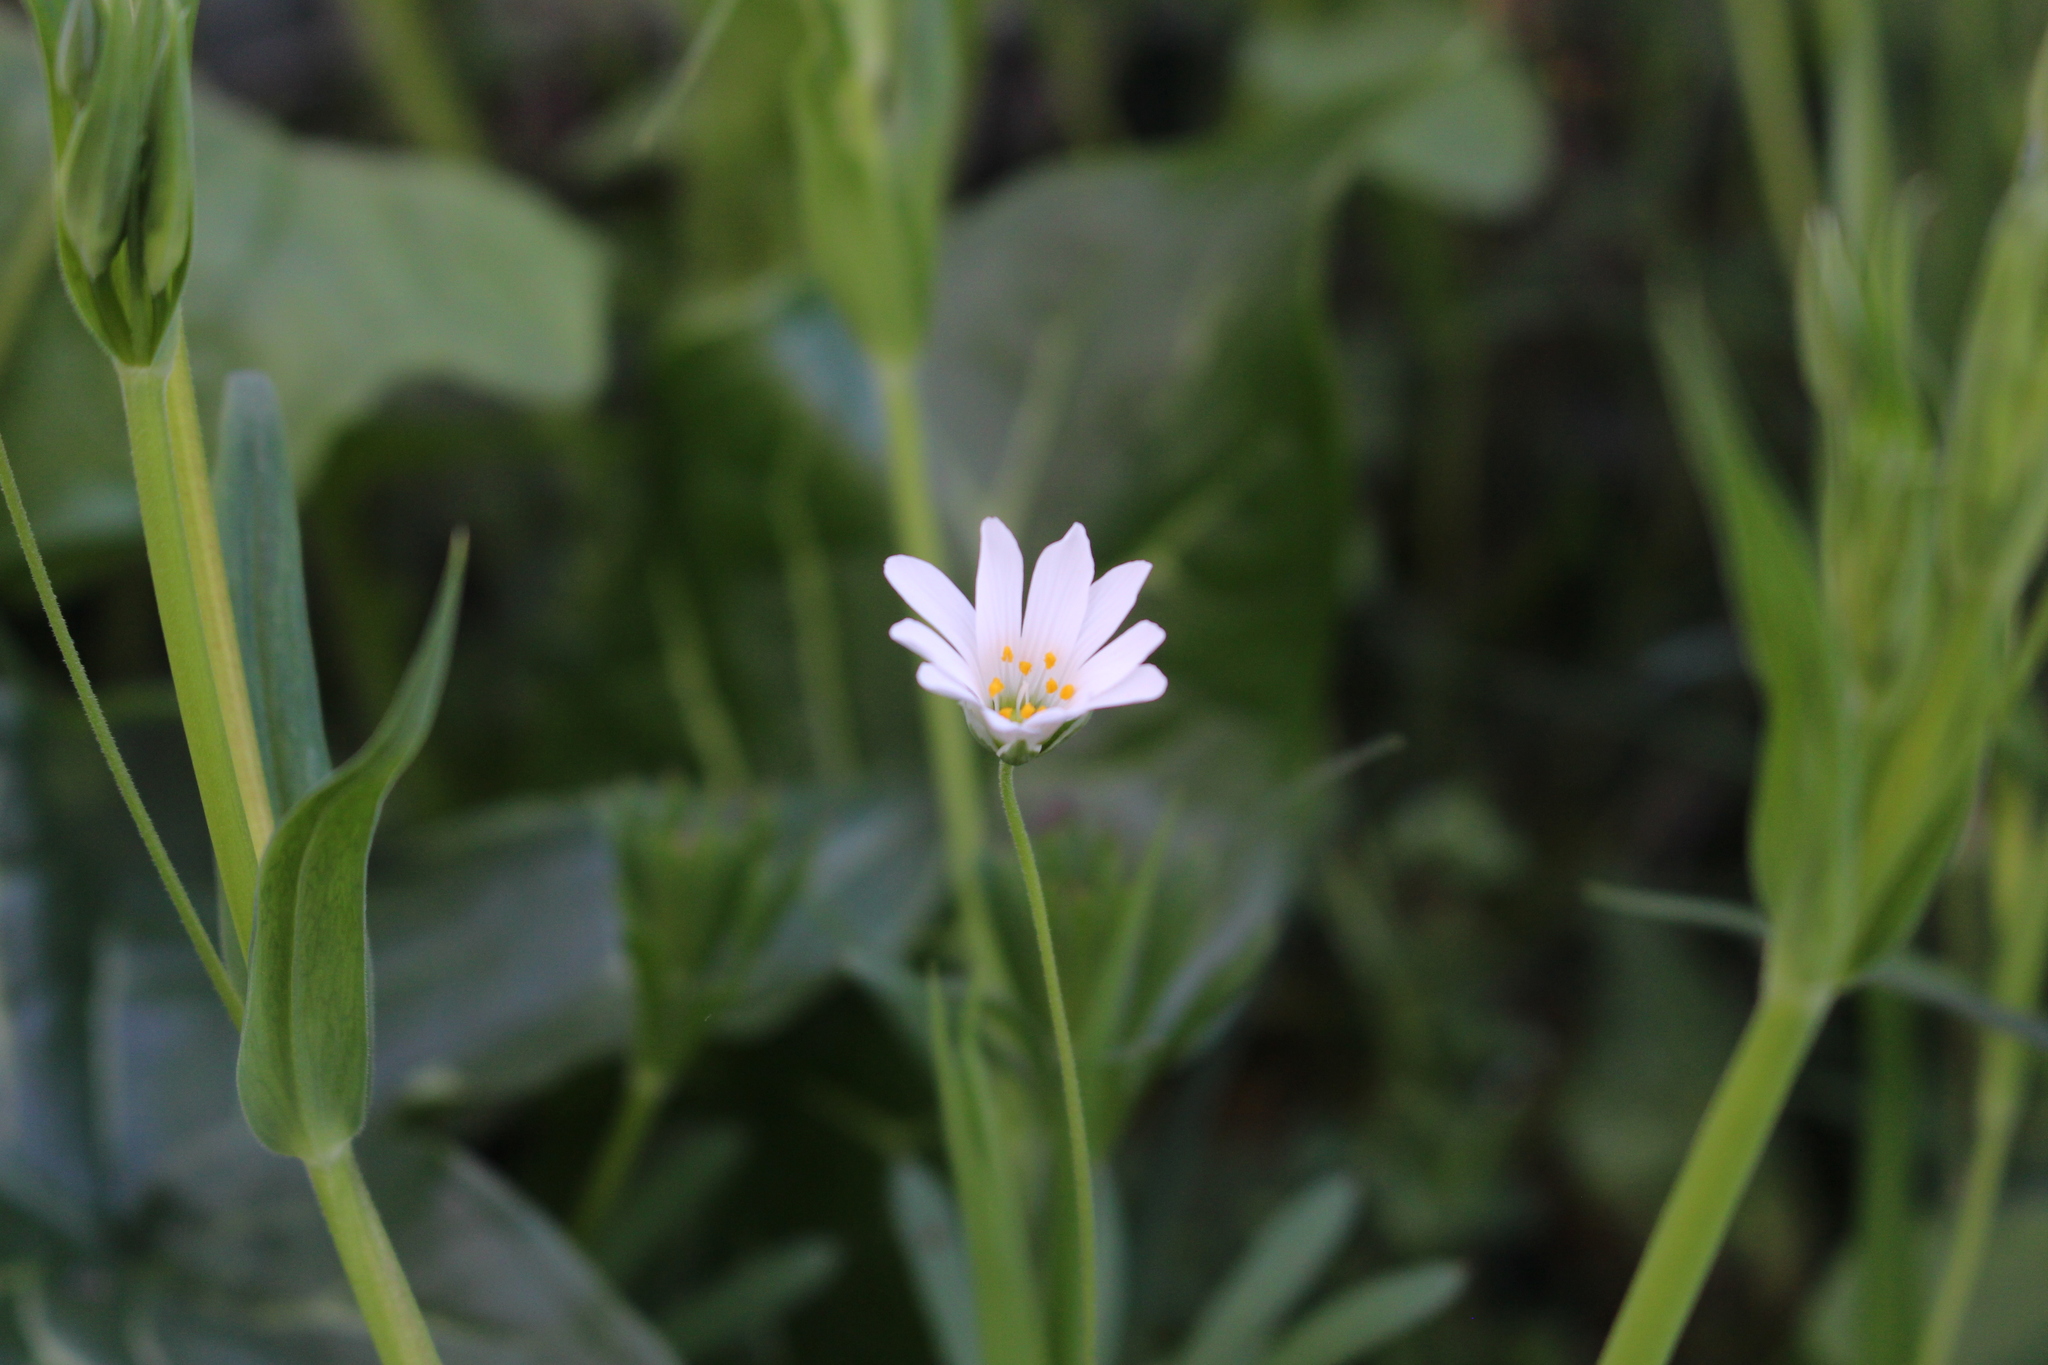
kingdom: Plantae
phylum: Tracheophyta
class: Magnoliopsida
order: Caryophyllales
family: Caryophyllaceae
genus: Rabelera
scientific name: Rabelera holostea
